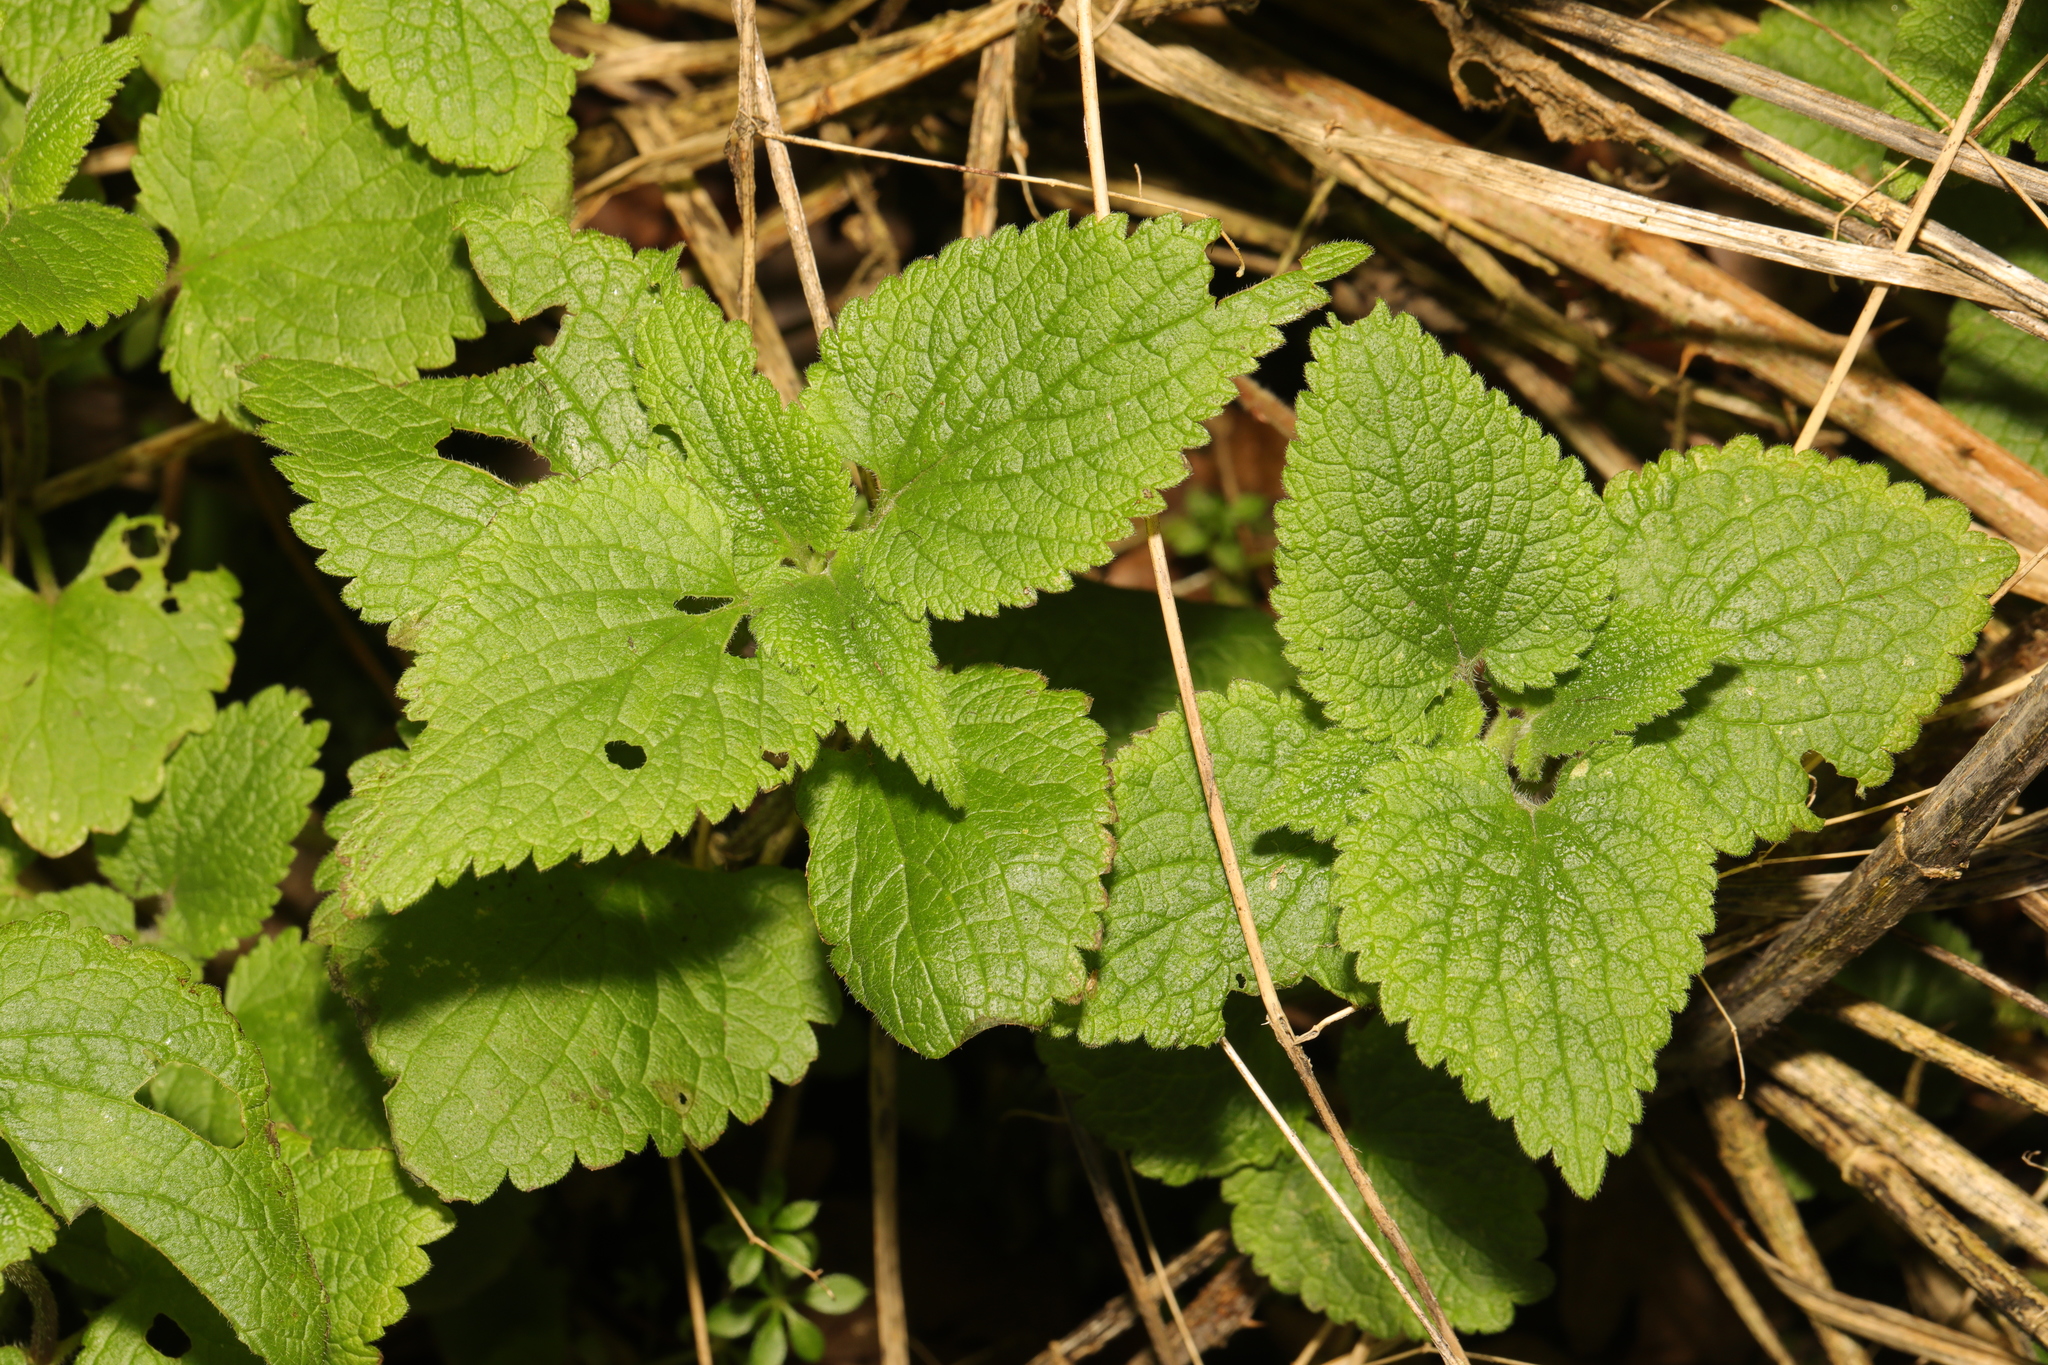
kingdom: Plantae
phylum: Tracheophyta
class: Magnoliopsida
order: Lamiales
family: Lamiaceae
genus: Lamium
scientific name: Lamium album
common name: White dead-nettle
